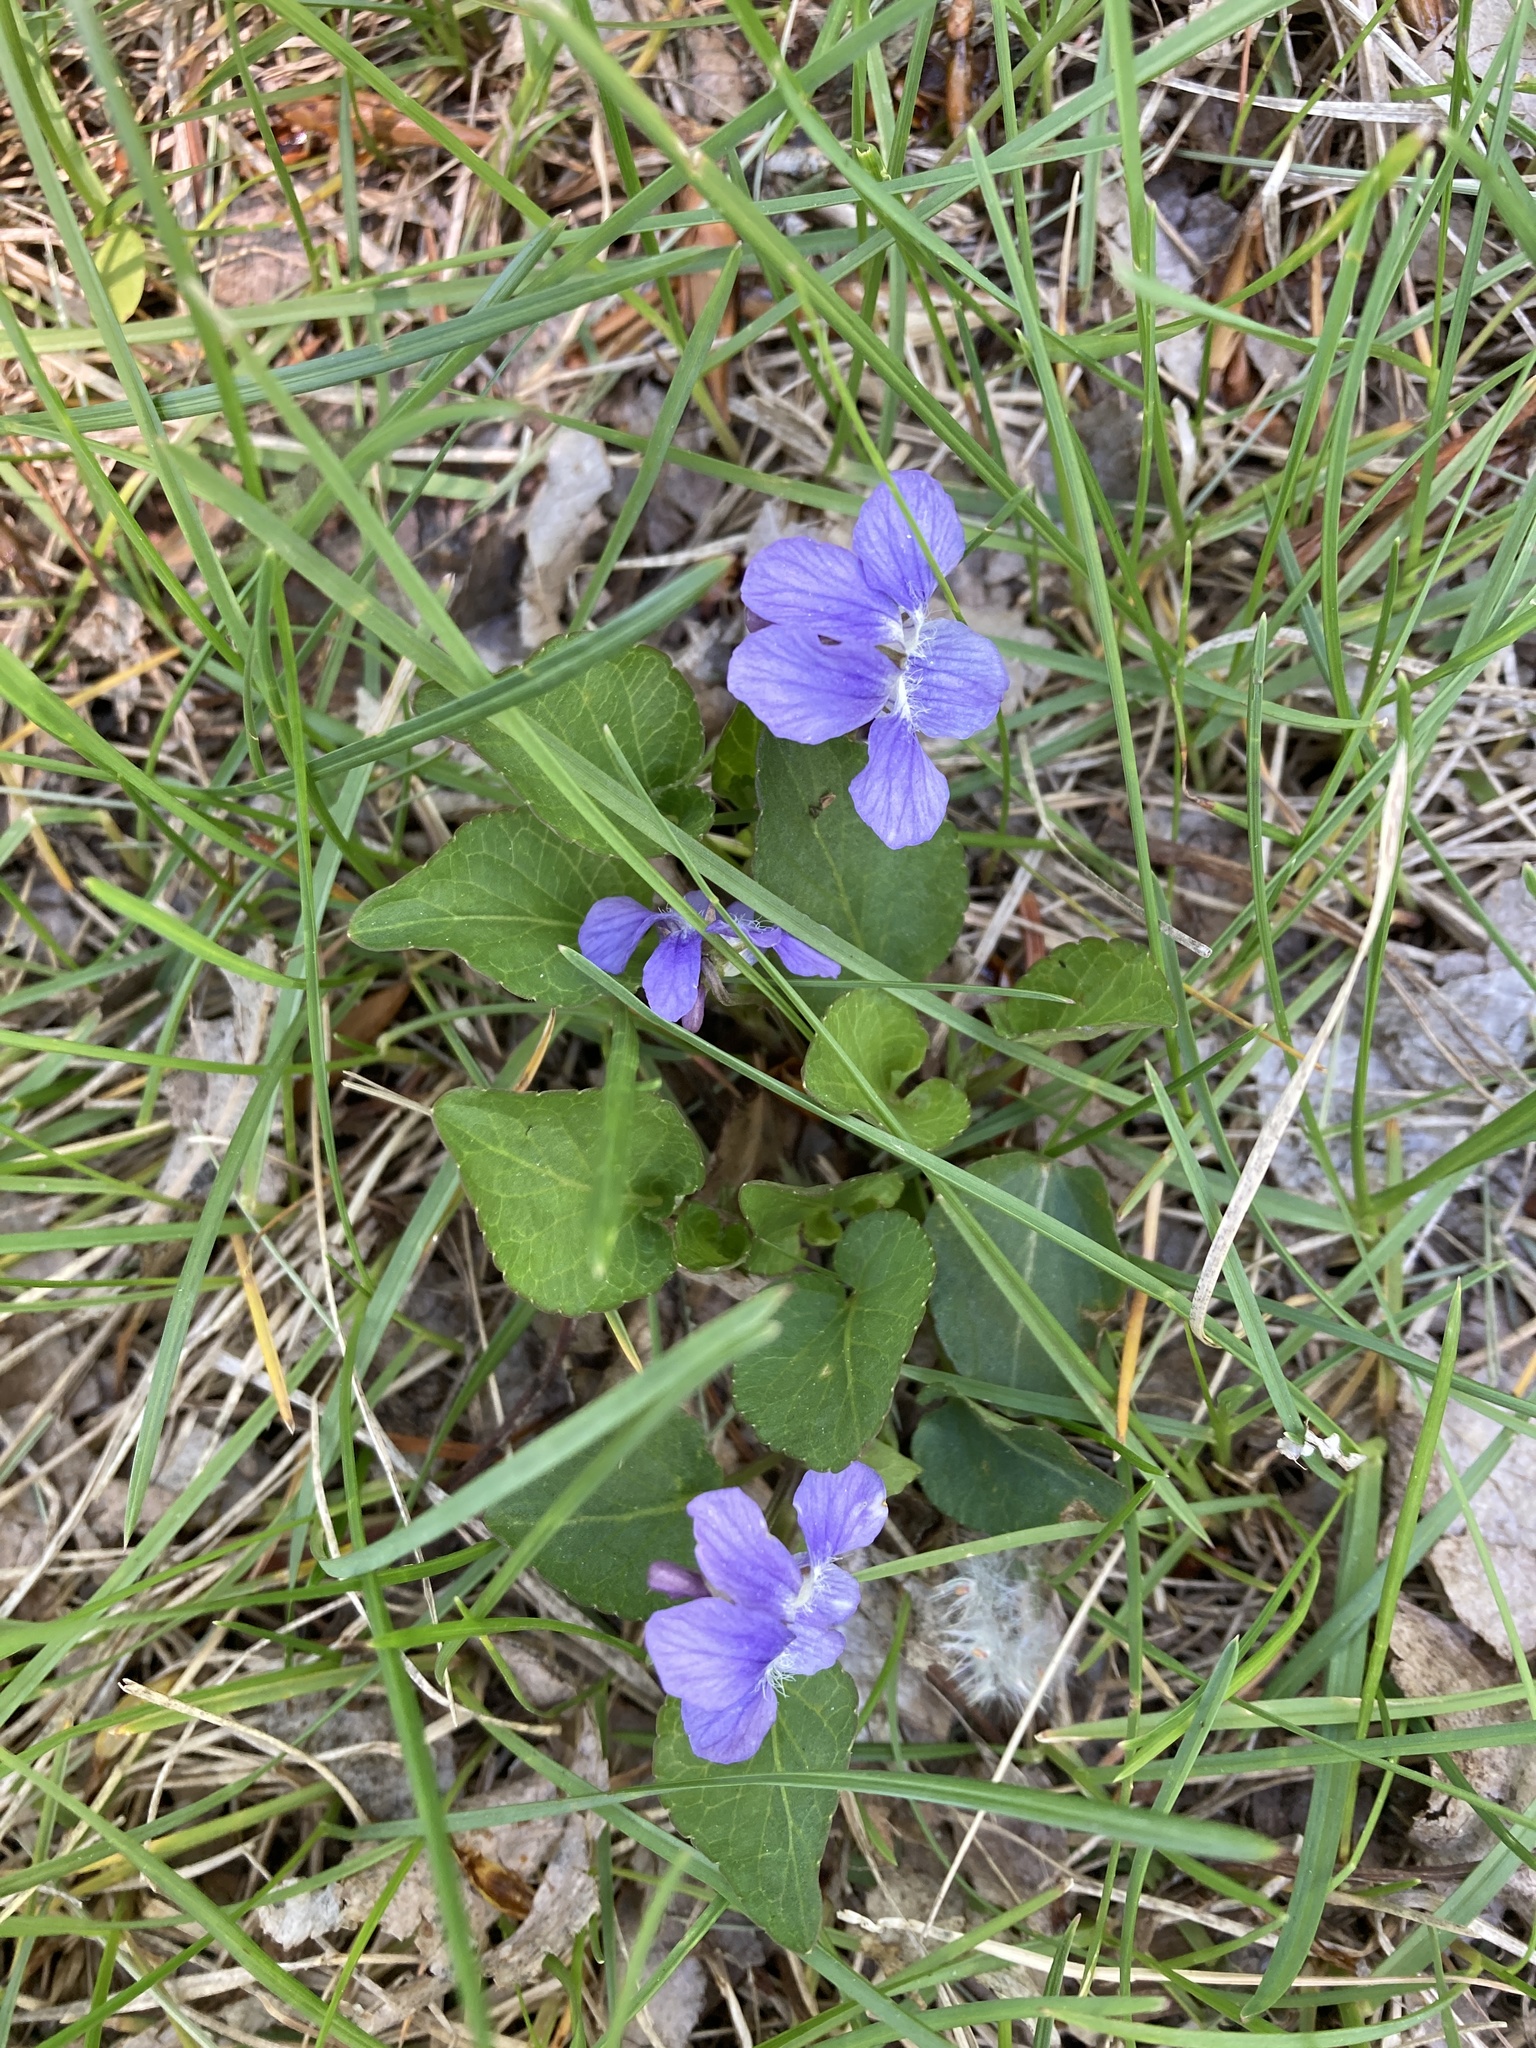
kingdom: Plantae
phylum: Tracheophyta
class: Magnoliopsida
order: Malpighiales
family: Violaceae
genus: Viola
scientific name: Viola adunca
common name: Sand violet
